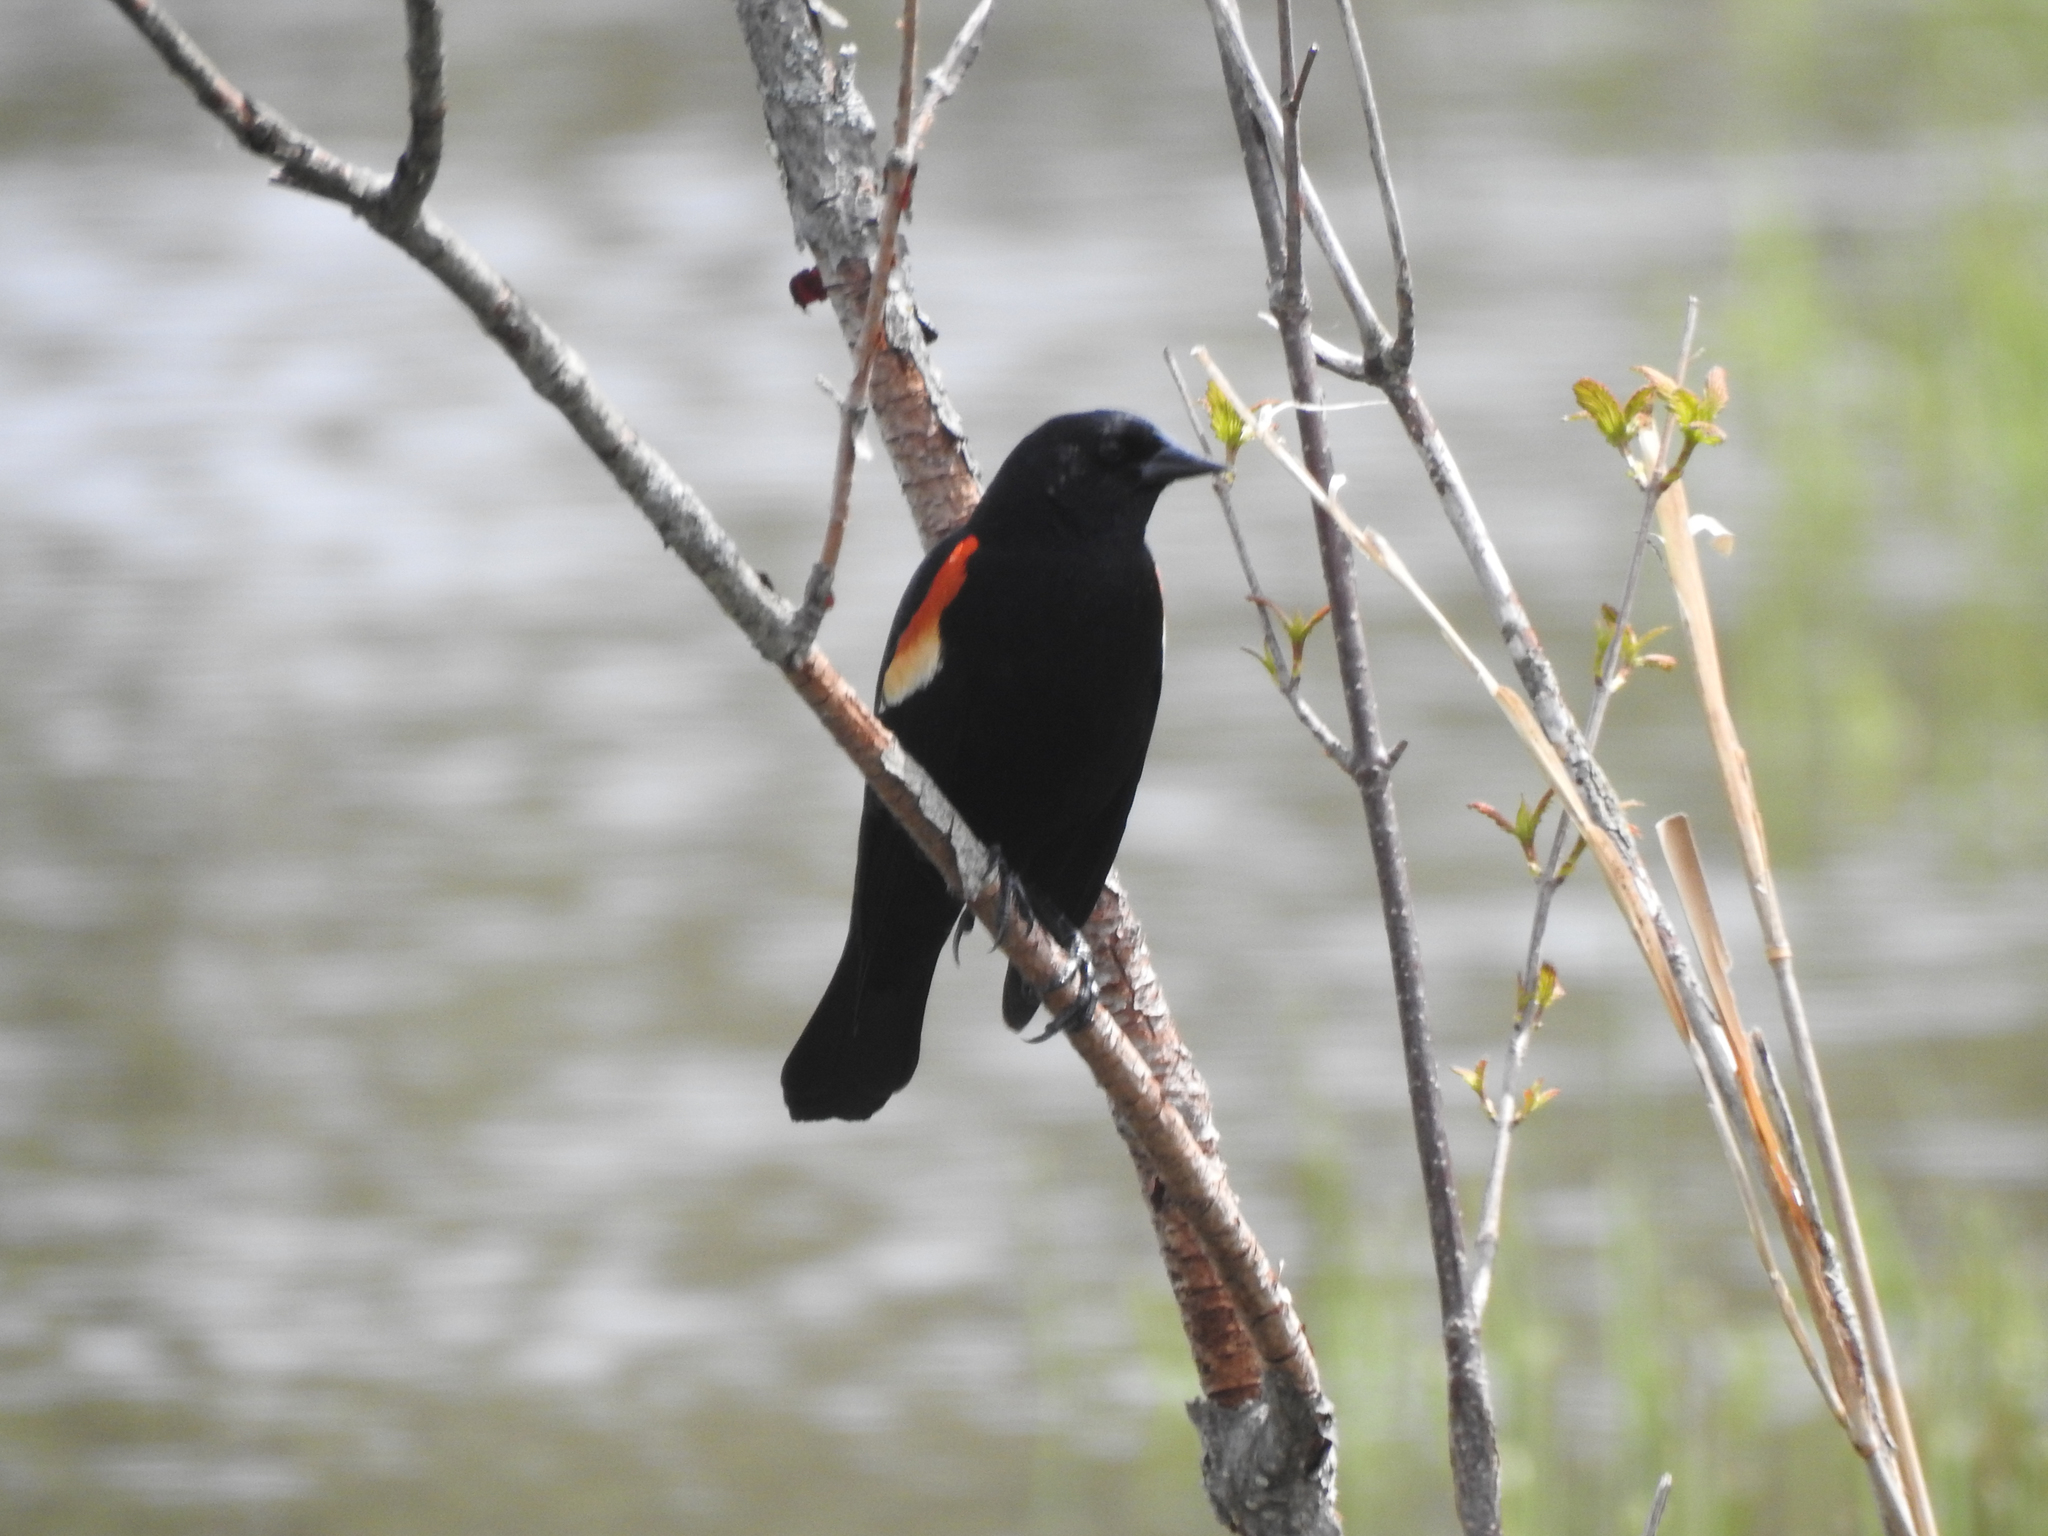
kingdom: Animalia
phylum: Chordata
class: Aves
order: Passeriformes
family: Icteridae
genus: Agelaius
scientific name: Agelaius phoeniceus
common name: Red-winged blackbird
